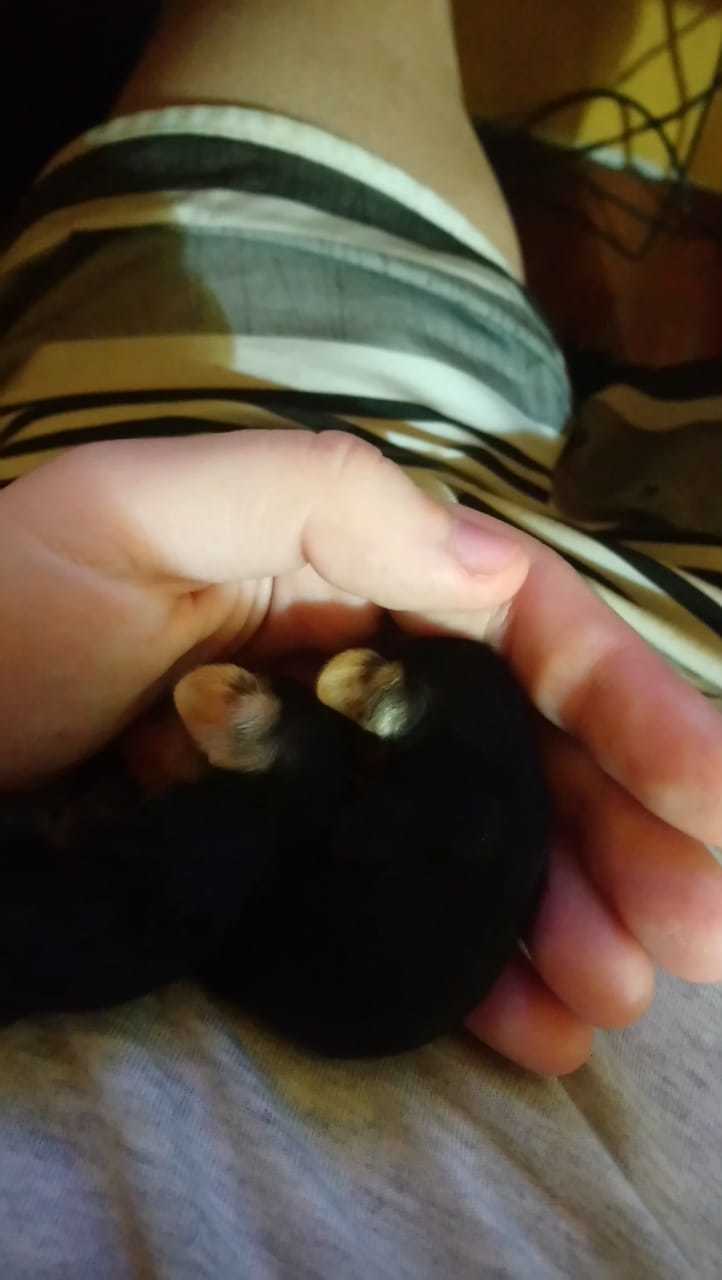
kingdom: Animalia
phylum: Chordata
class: Mammalia
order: Didelphimorphia
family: Didelphidae
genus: Didelphis
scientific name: Didelphis albiventris
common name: White-eared opossum
